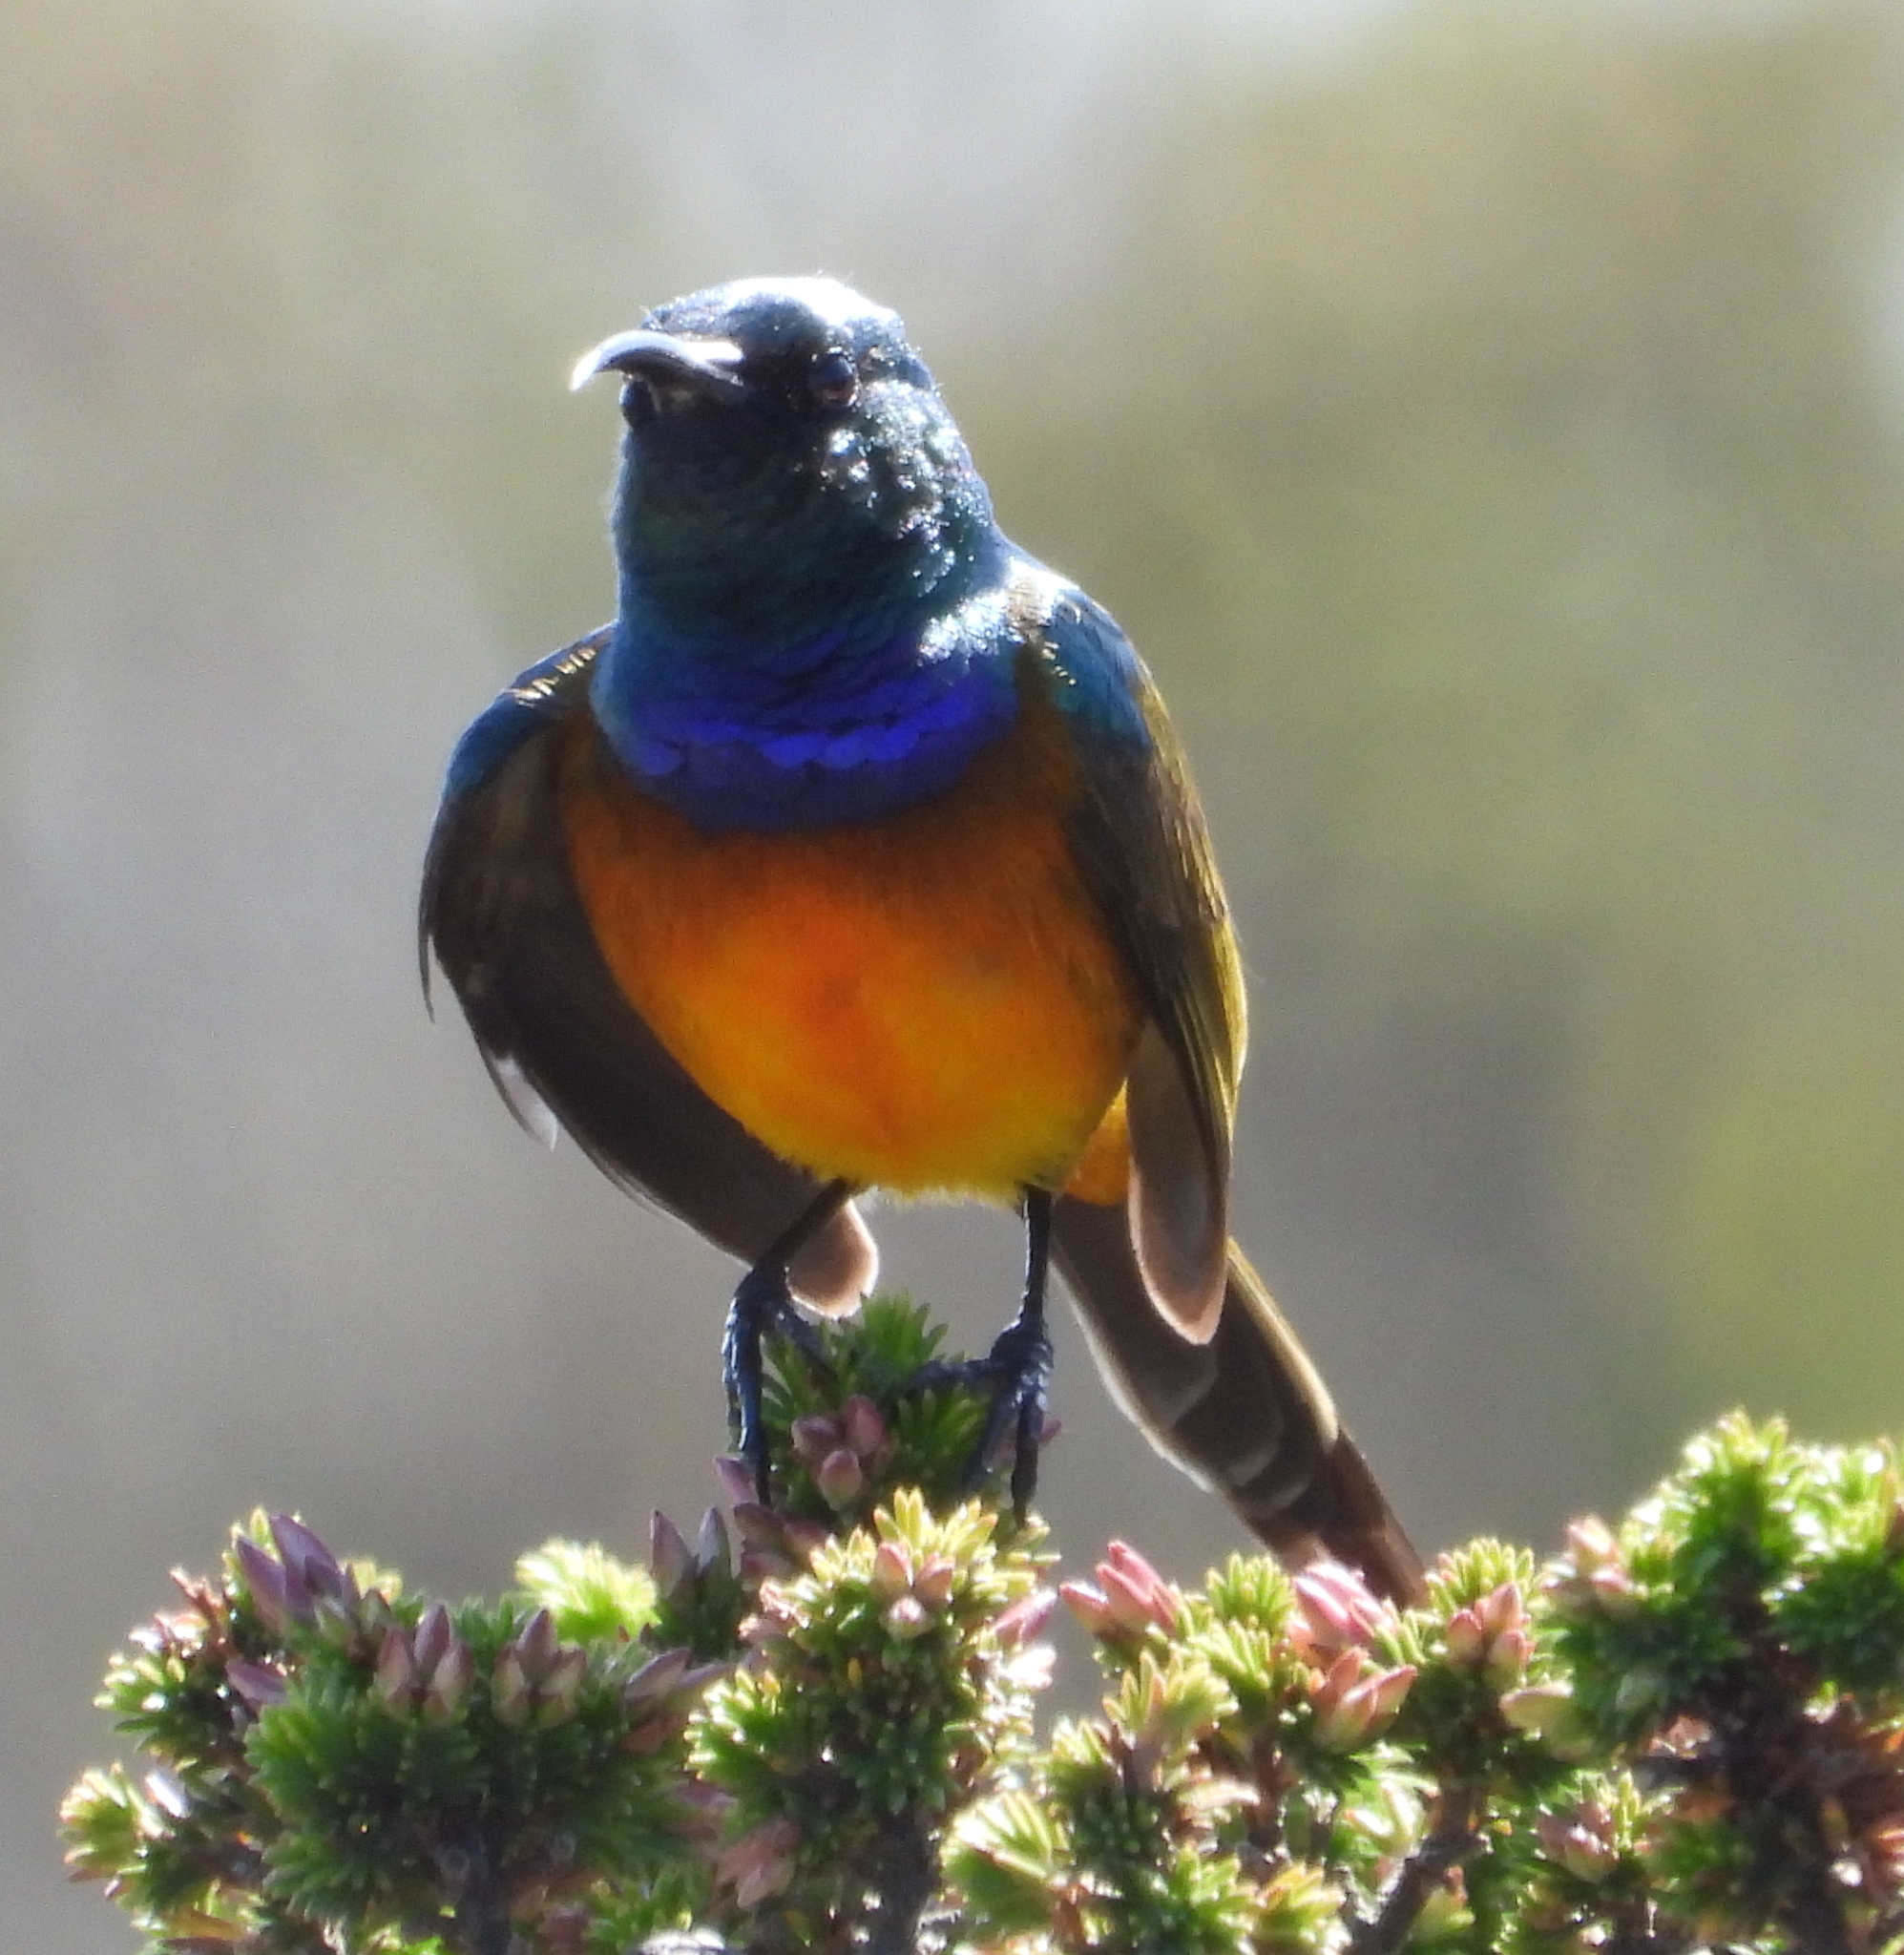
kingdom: Animalia
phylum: Chordata
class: Aves
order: Passeriformes
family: Nectariniidae
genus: Anthobaphes
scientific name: Anthobaphes violacea
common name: Orange-breasted sunbird
